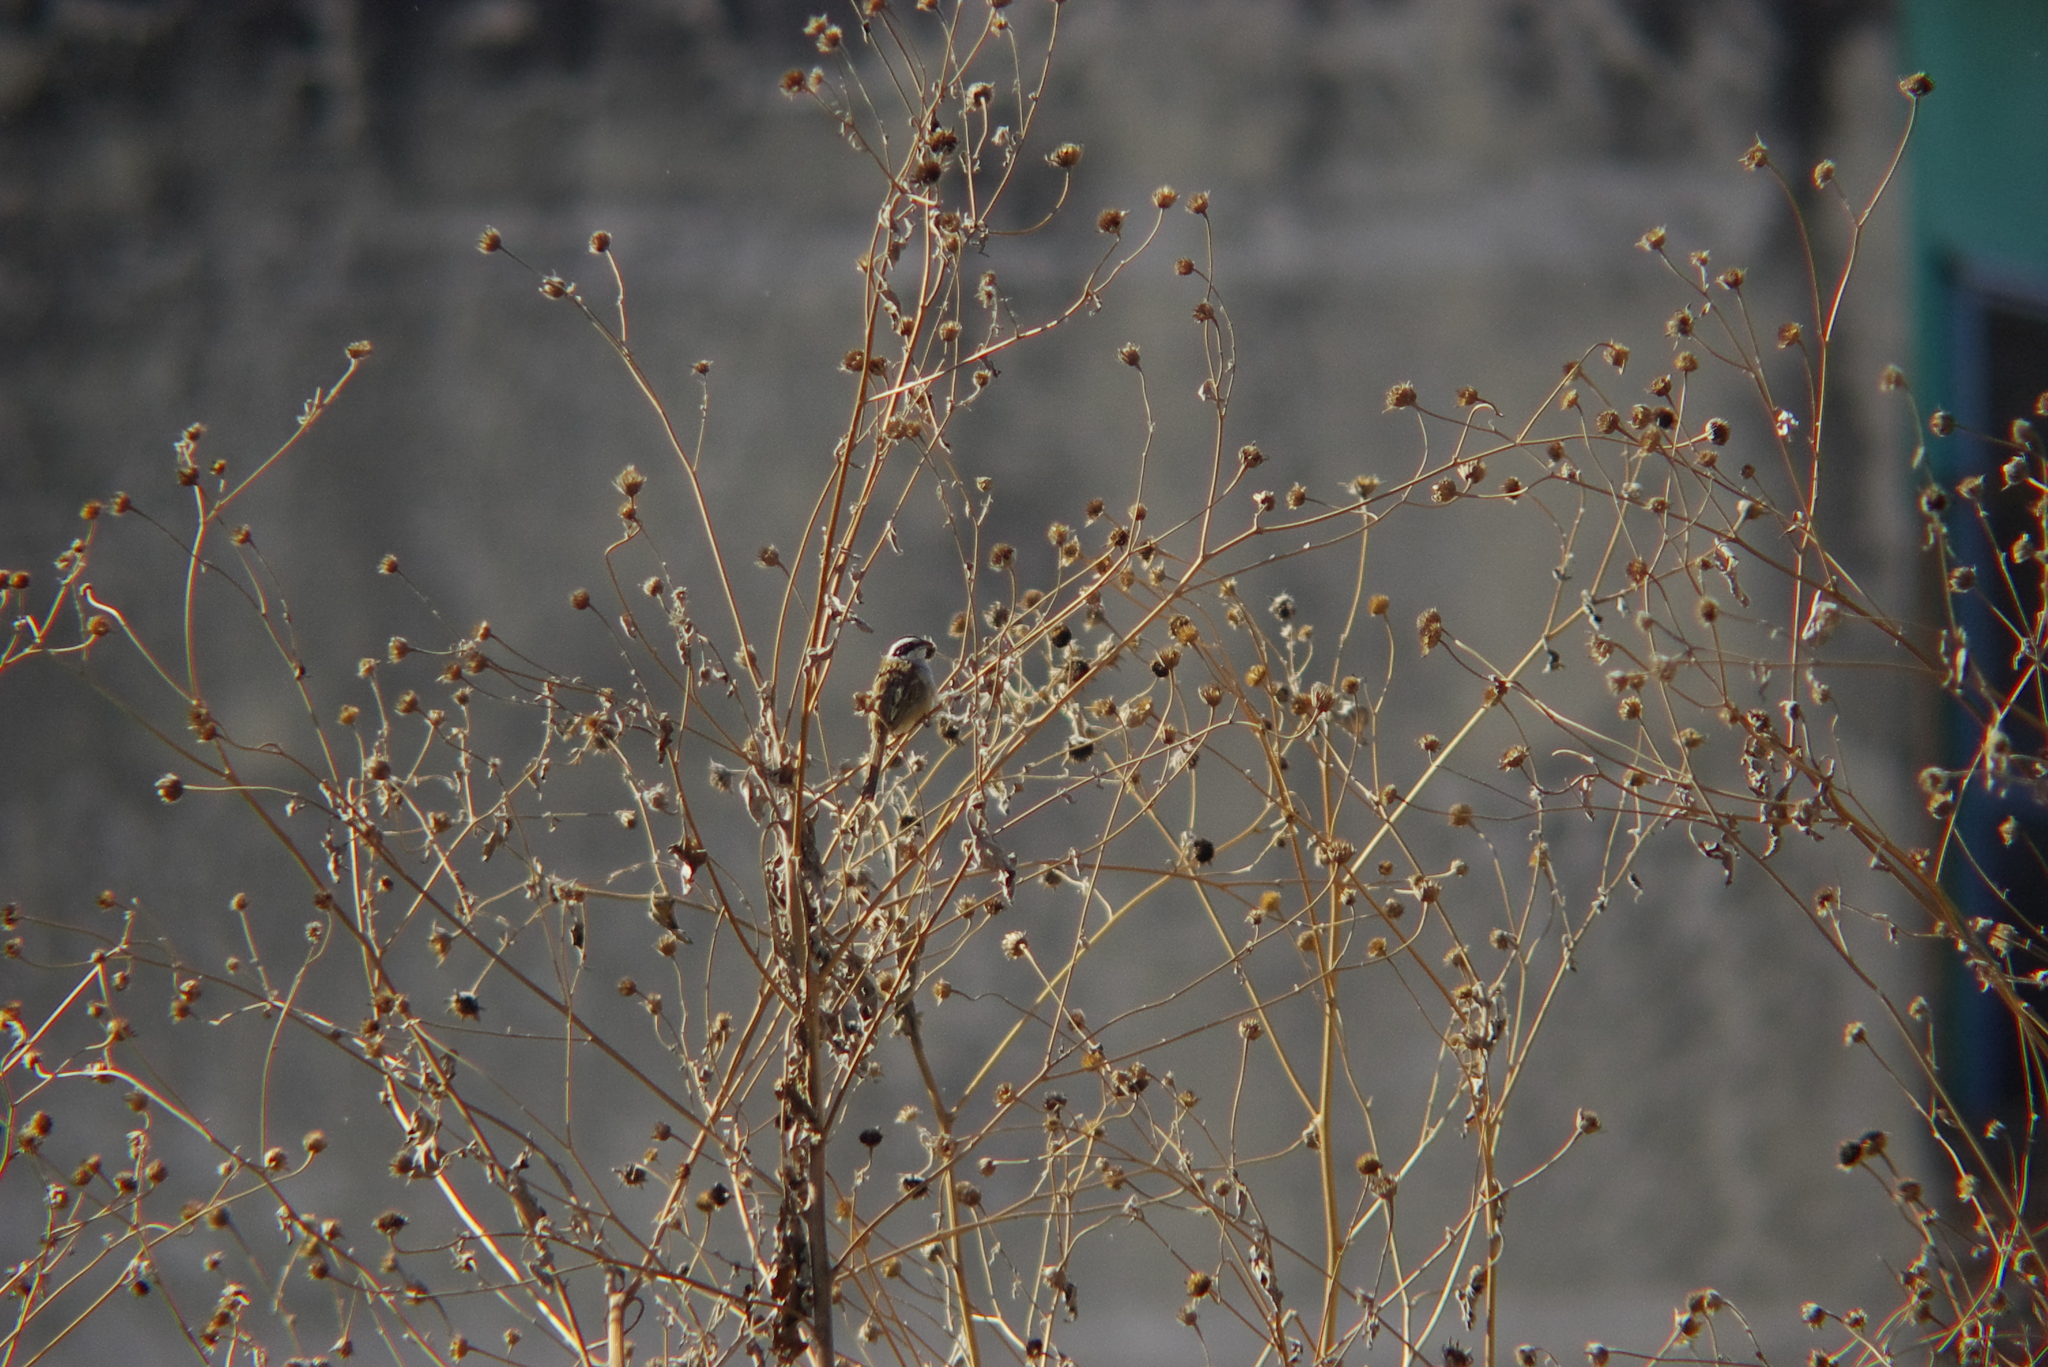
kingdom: Animalia
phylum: Chordata
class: Aves
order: Passeriformes
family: Passerellidae
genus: Peucaea
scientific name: Peucaea ruficauda
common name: Stripe-headed sparrow
